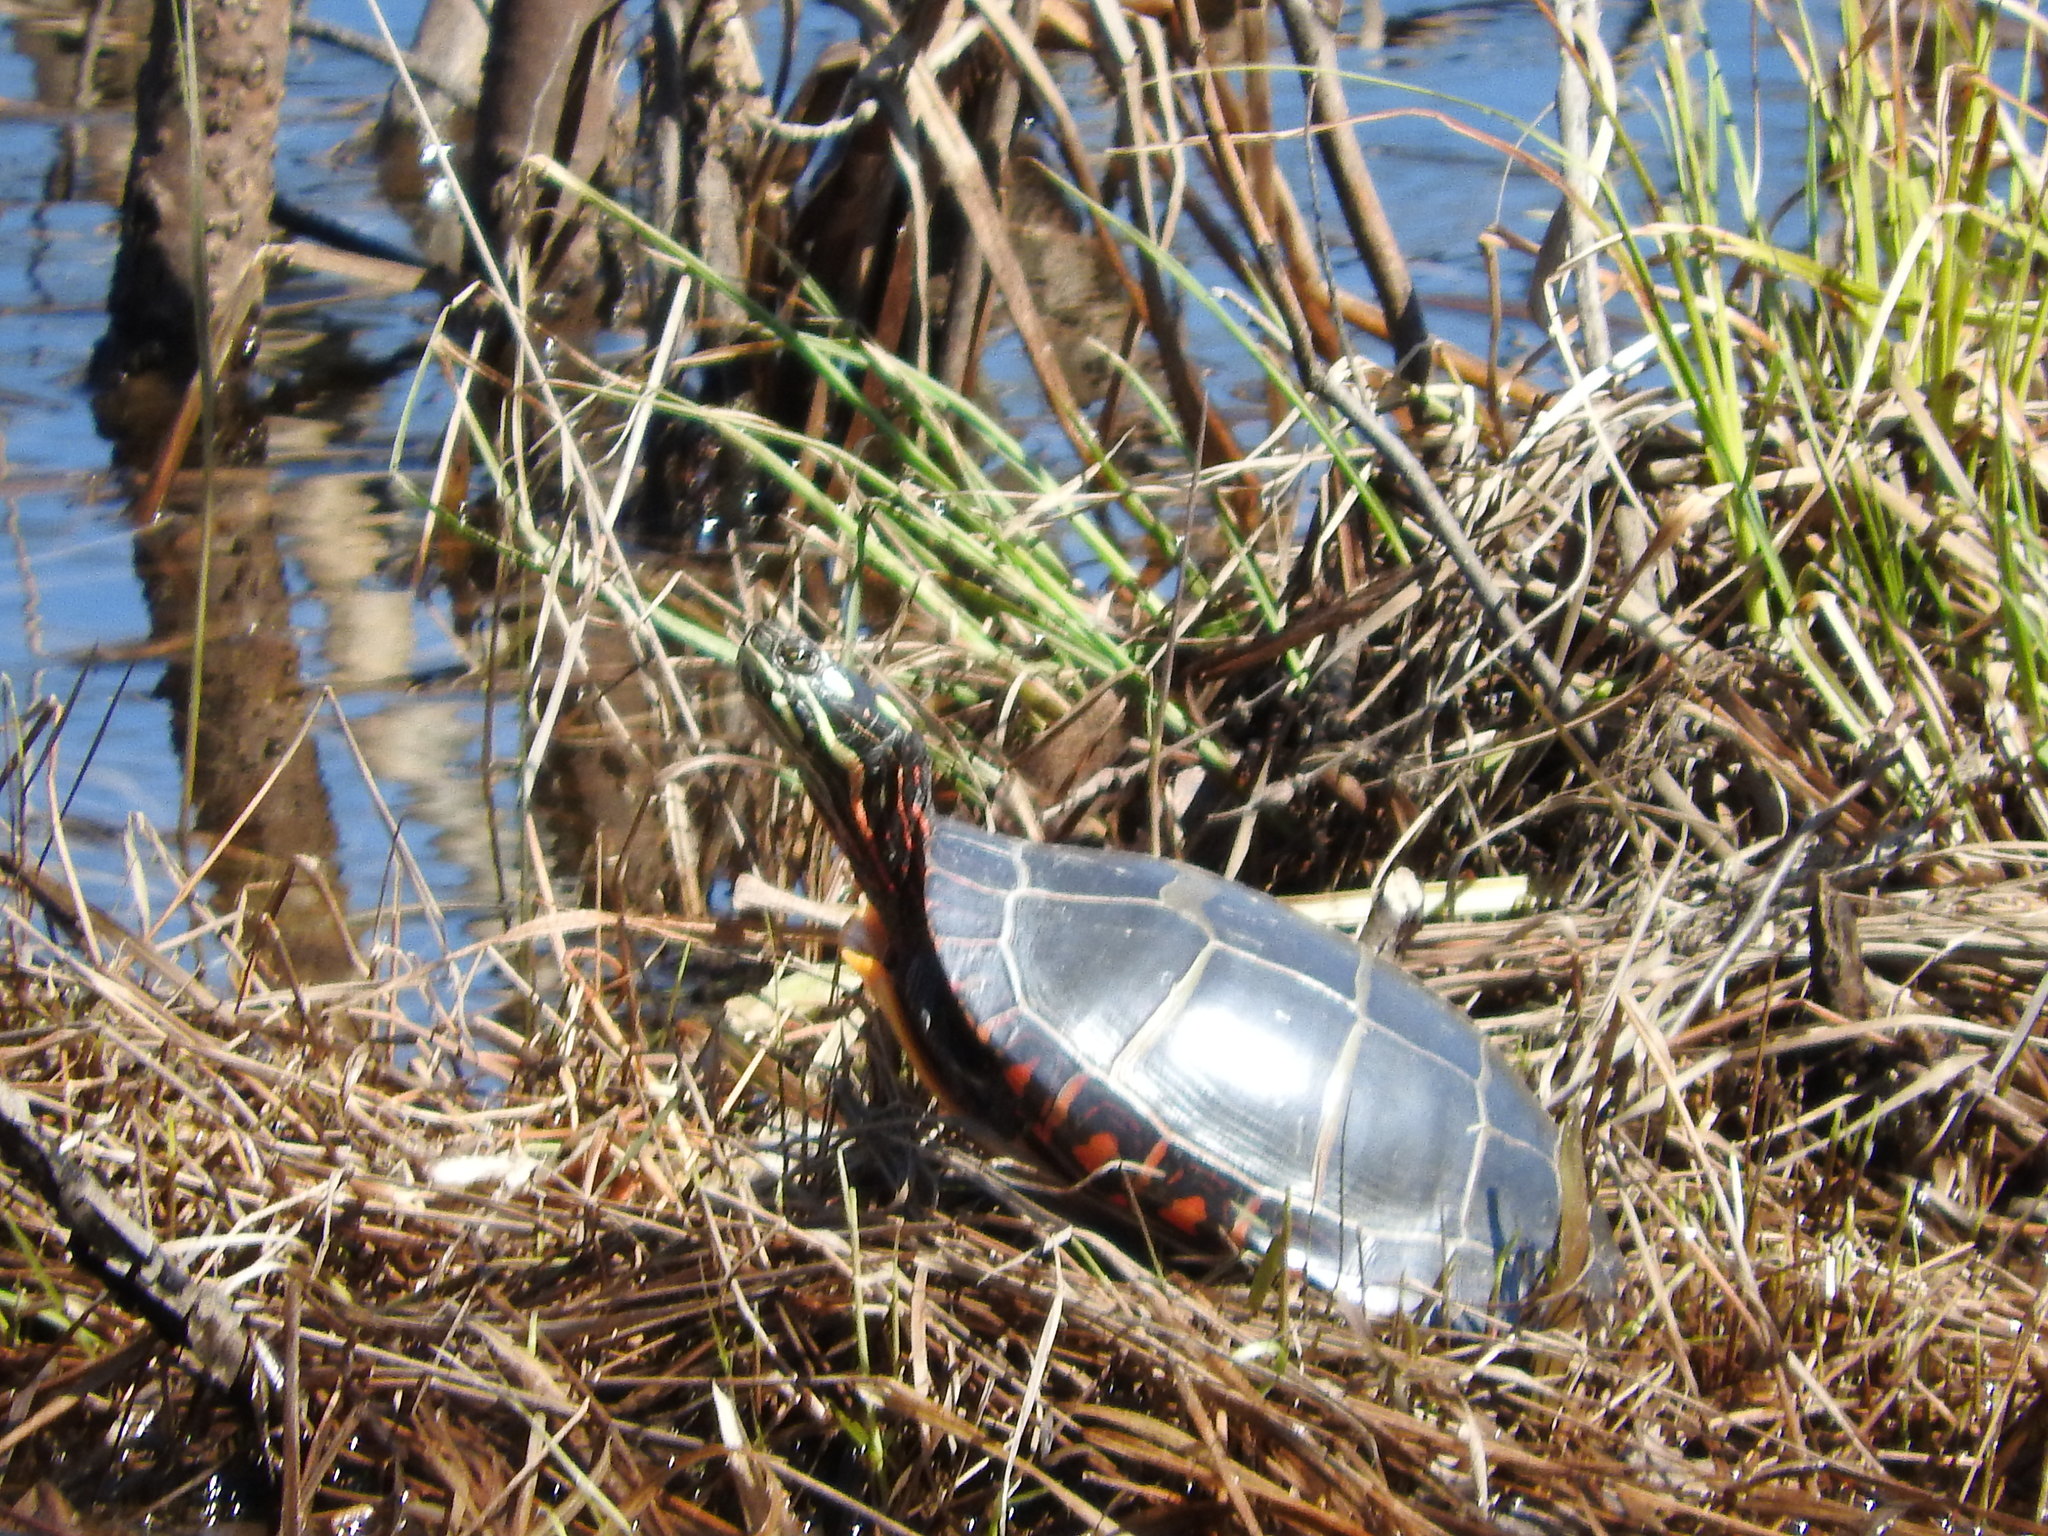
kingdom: Animalia
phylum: Chordata
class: Testudines
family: Emydidae
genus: Chrysemys
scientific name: Chrysemys picta
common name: Painted turtle
